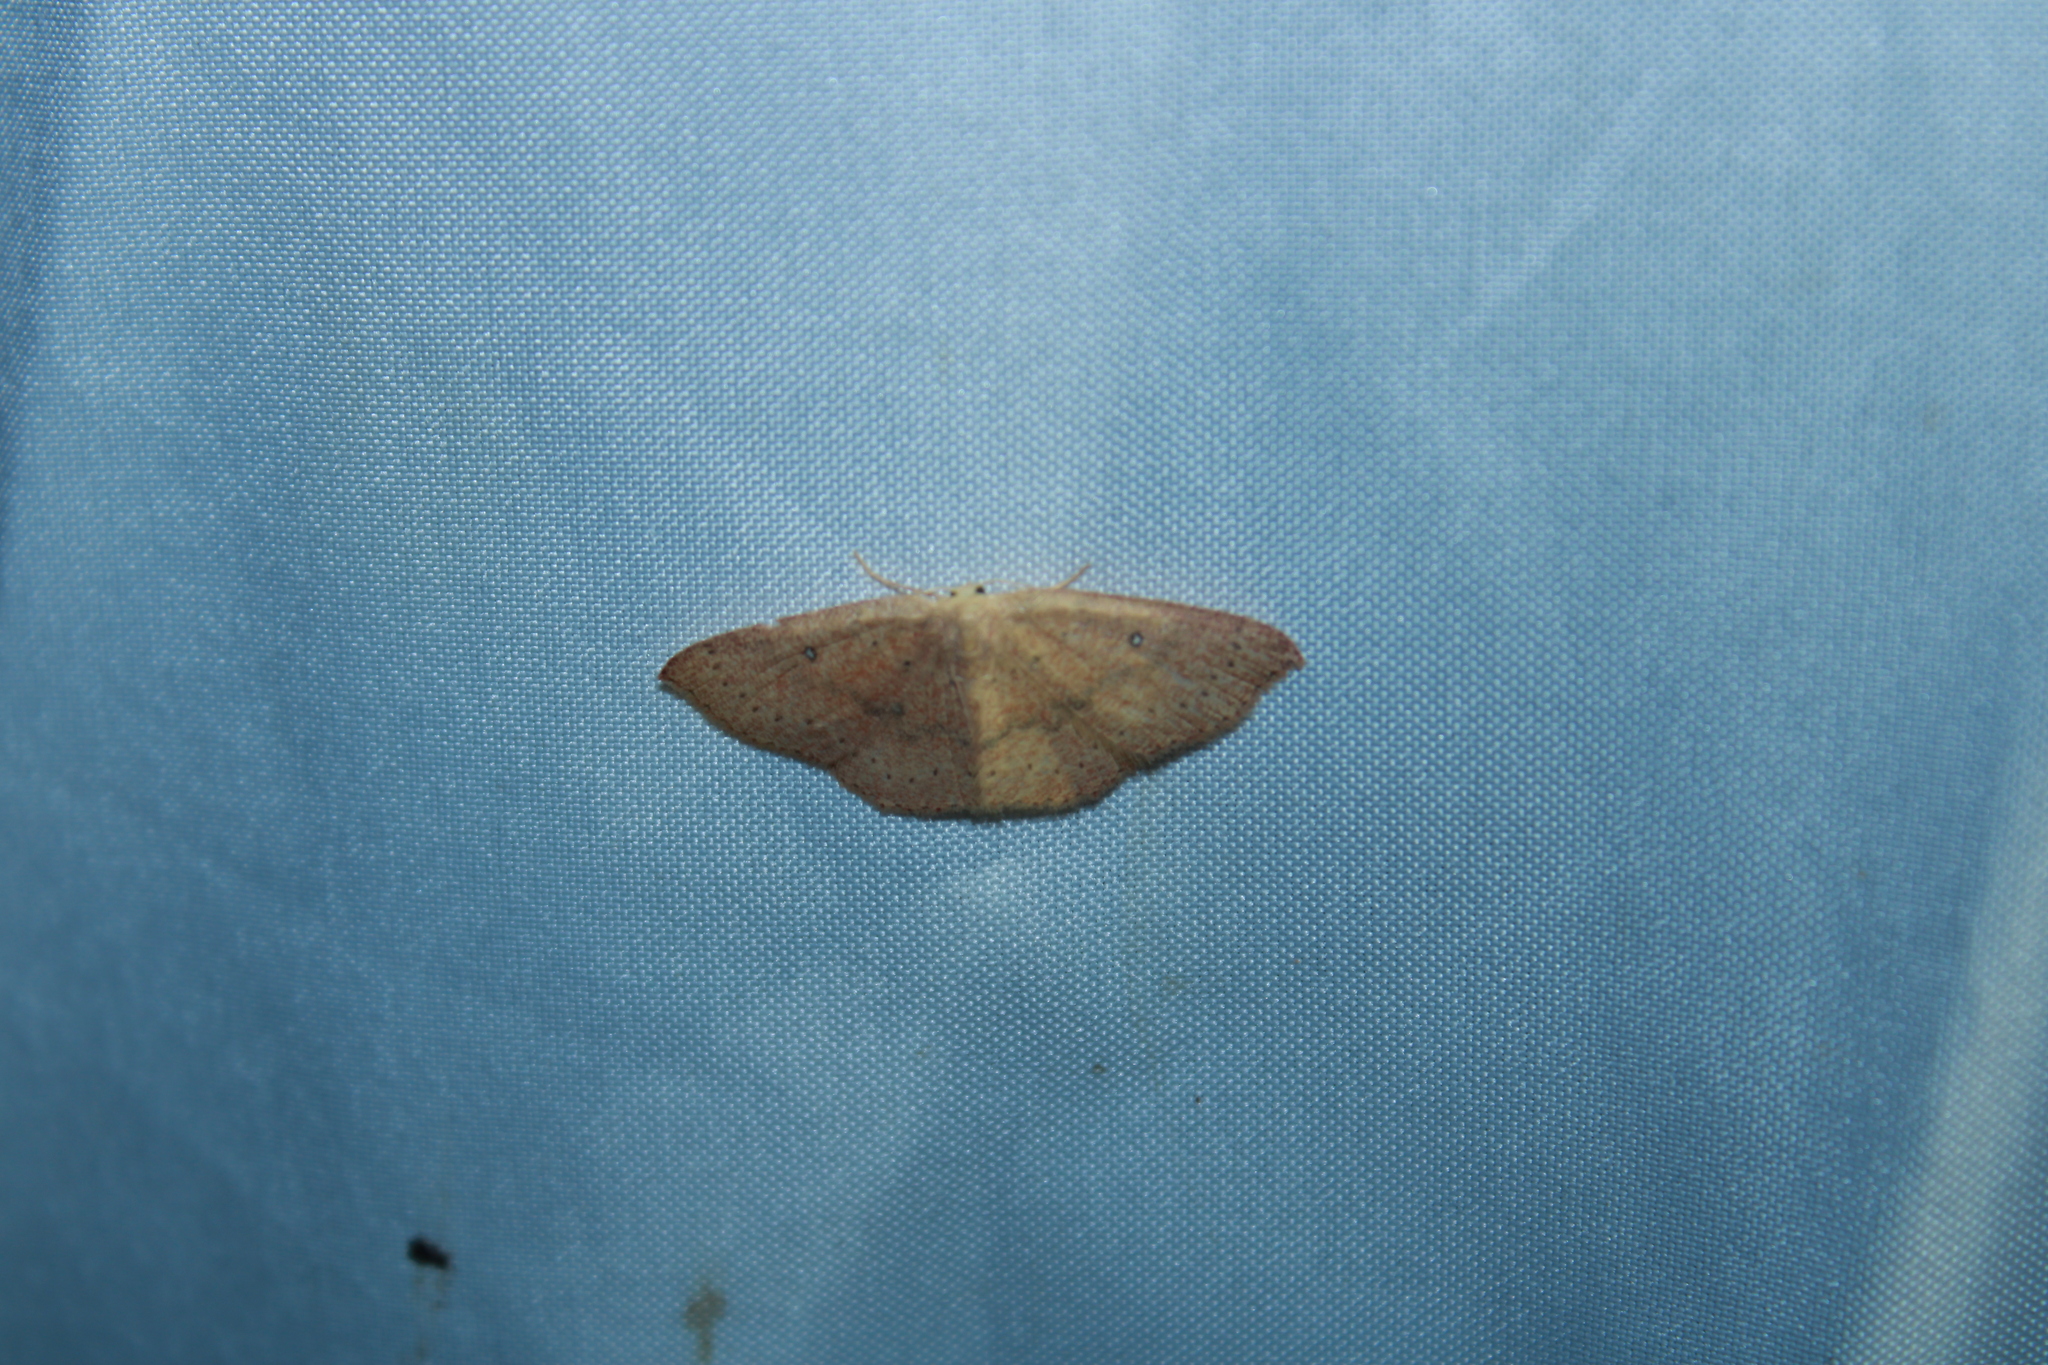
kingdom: Animalia
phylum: Arthropoda
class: Insecta
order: Lepidoptera
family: Geometridae
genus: Cyclophora
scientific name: Cyclophora packardi
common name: Packard's wave
